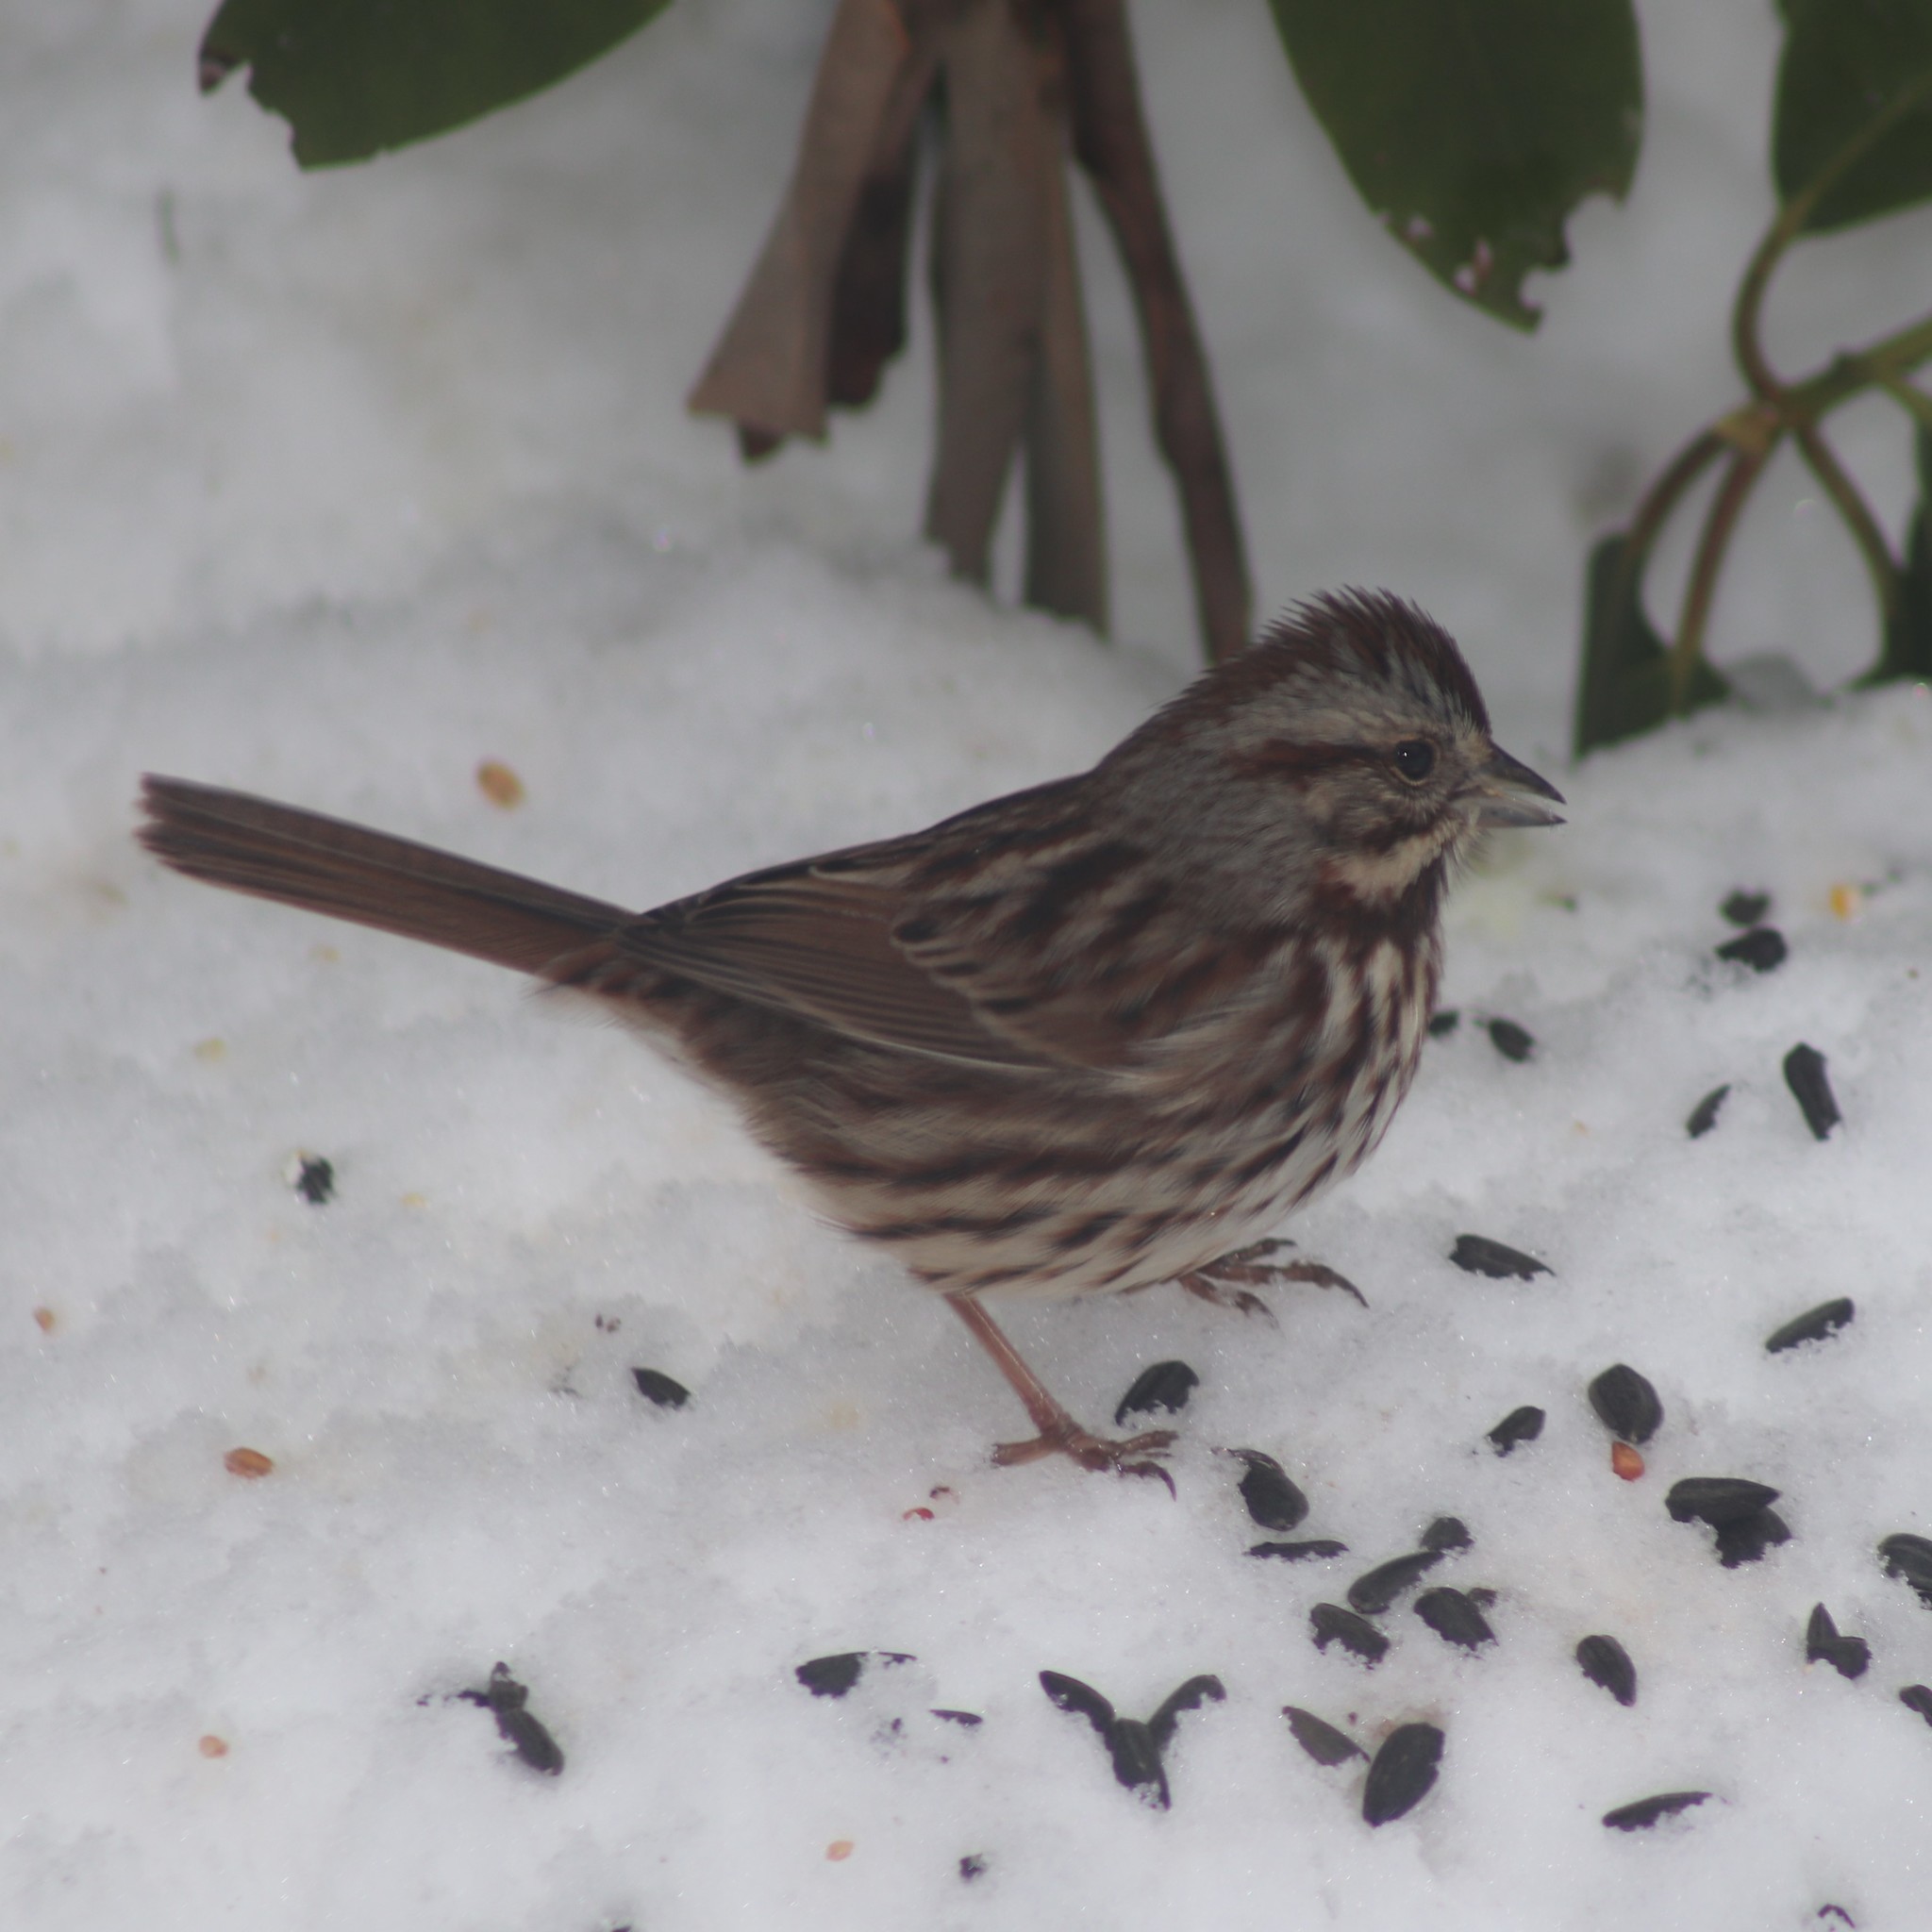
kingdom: Animalia
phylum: Chordata
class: Aves
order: Passeriformes
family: Passerellidae
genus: Melospiza
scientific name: Melospiza melodia
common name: Song sparrow
